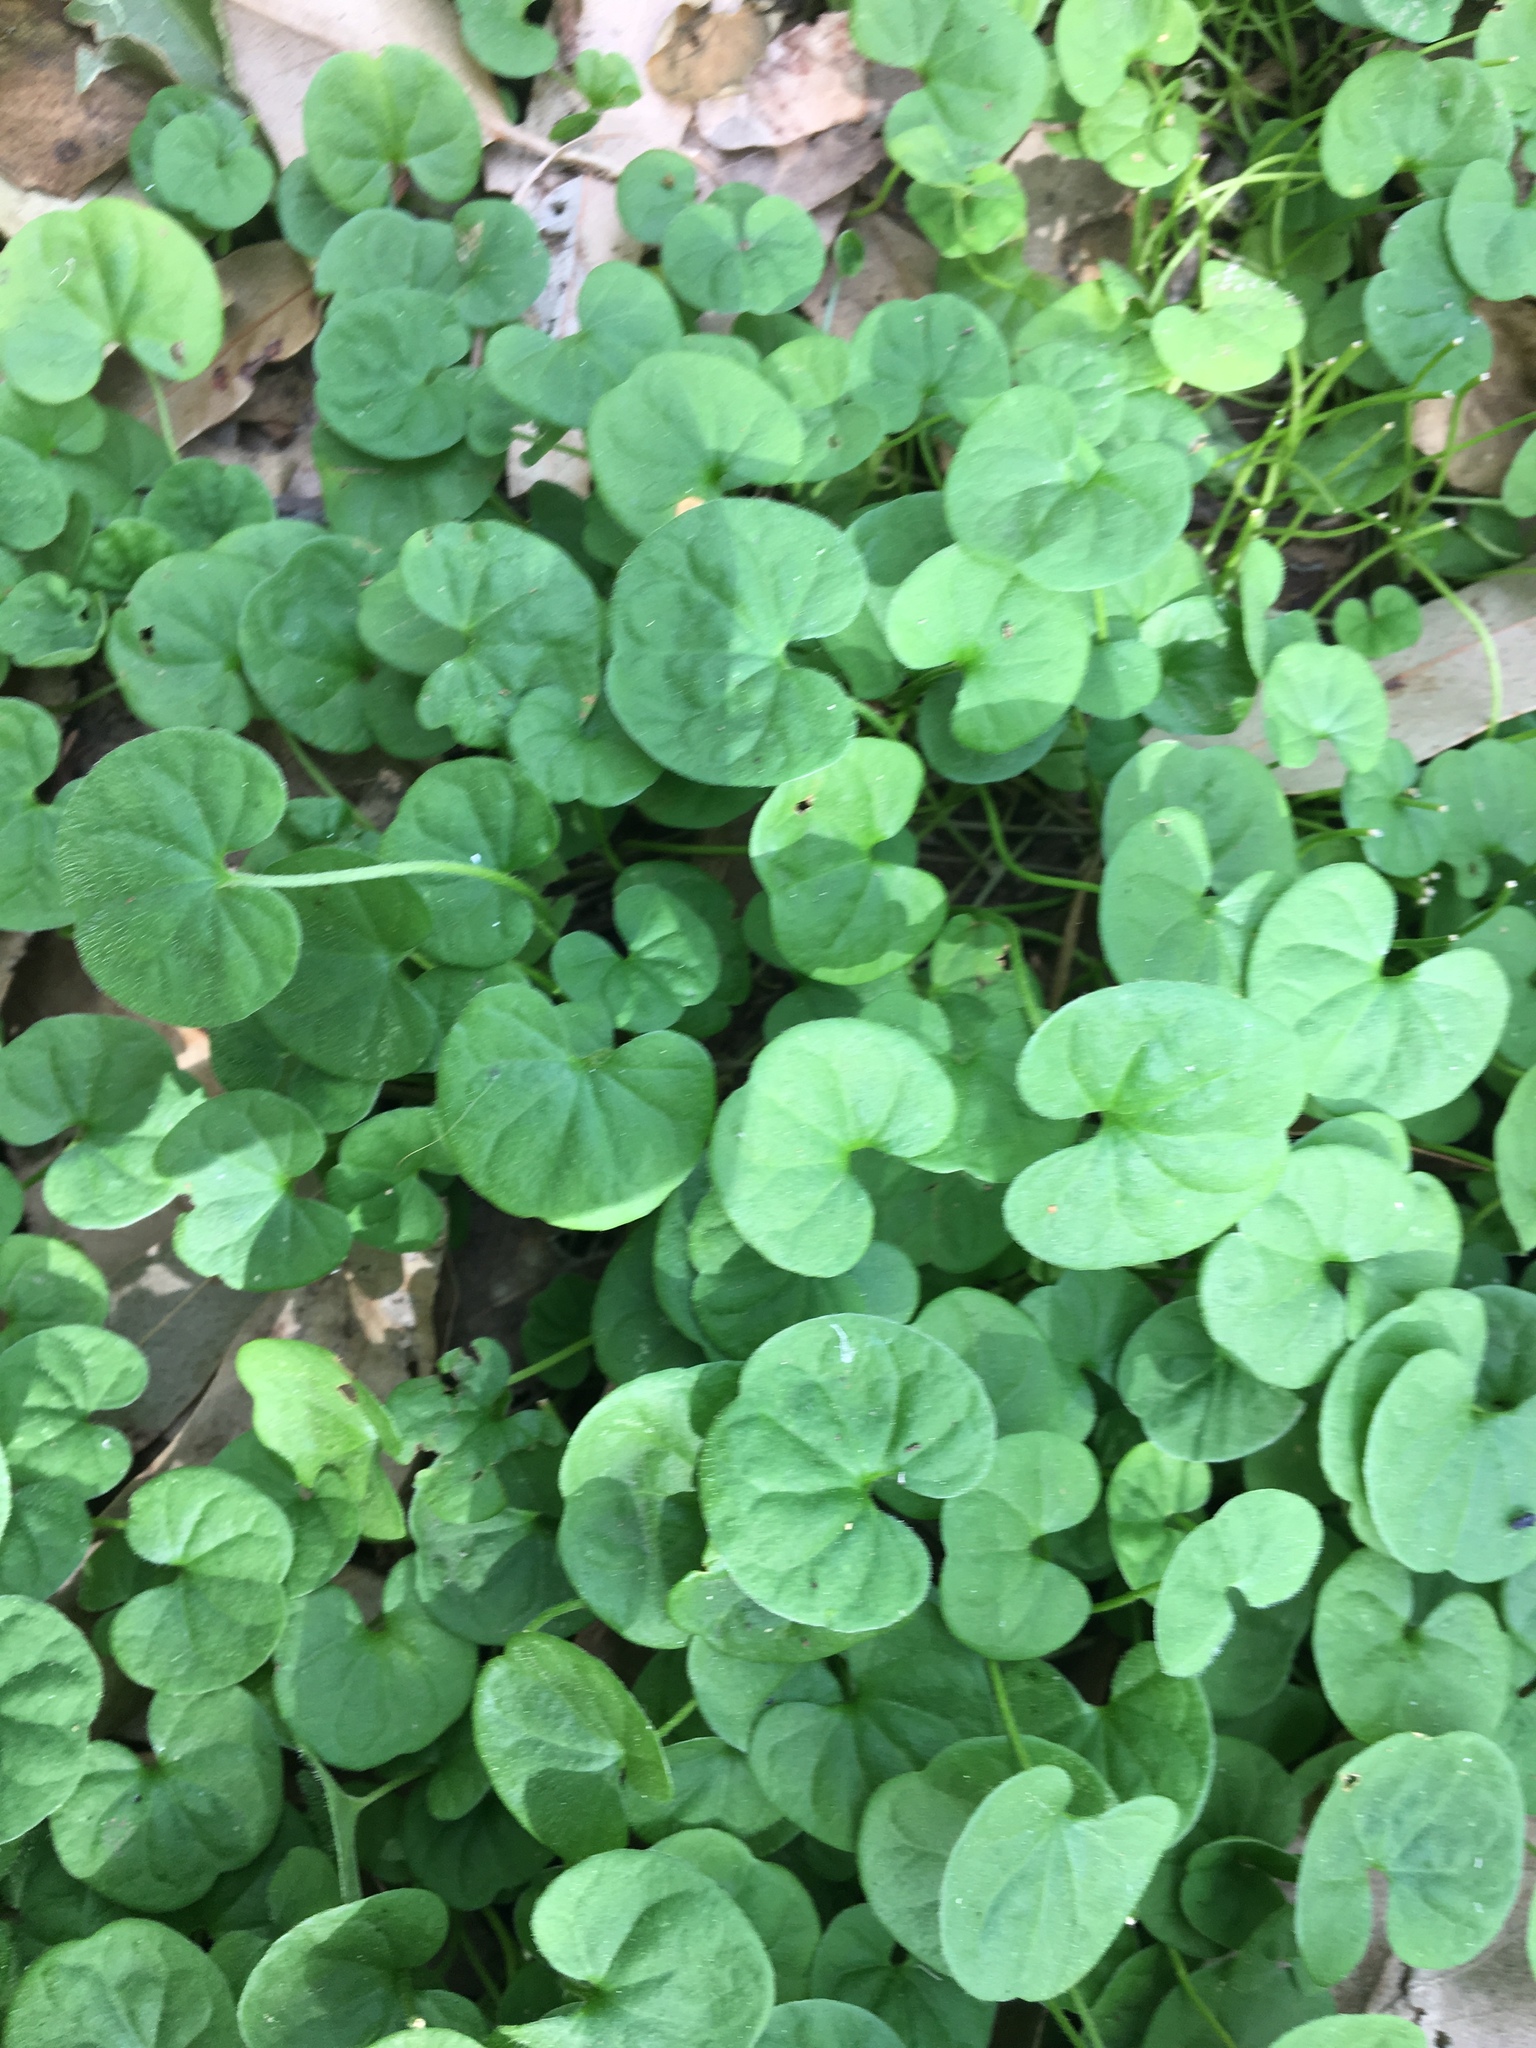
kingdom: Plantae
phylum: Tracheophyta
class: Magnoliopsida
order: Solanales
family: Convolvulaceae
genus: Dichondra
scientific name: Dichondra repens
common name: Kidneyweed
